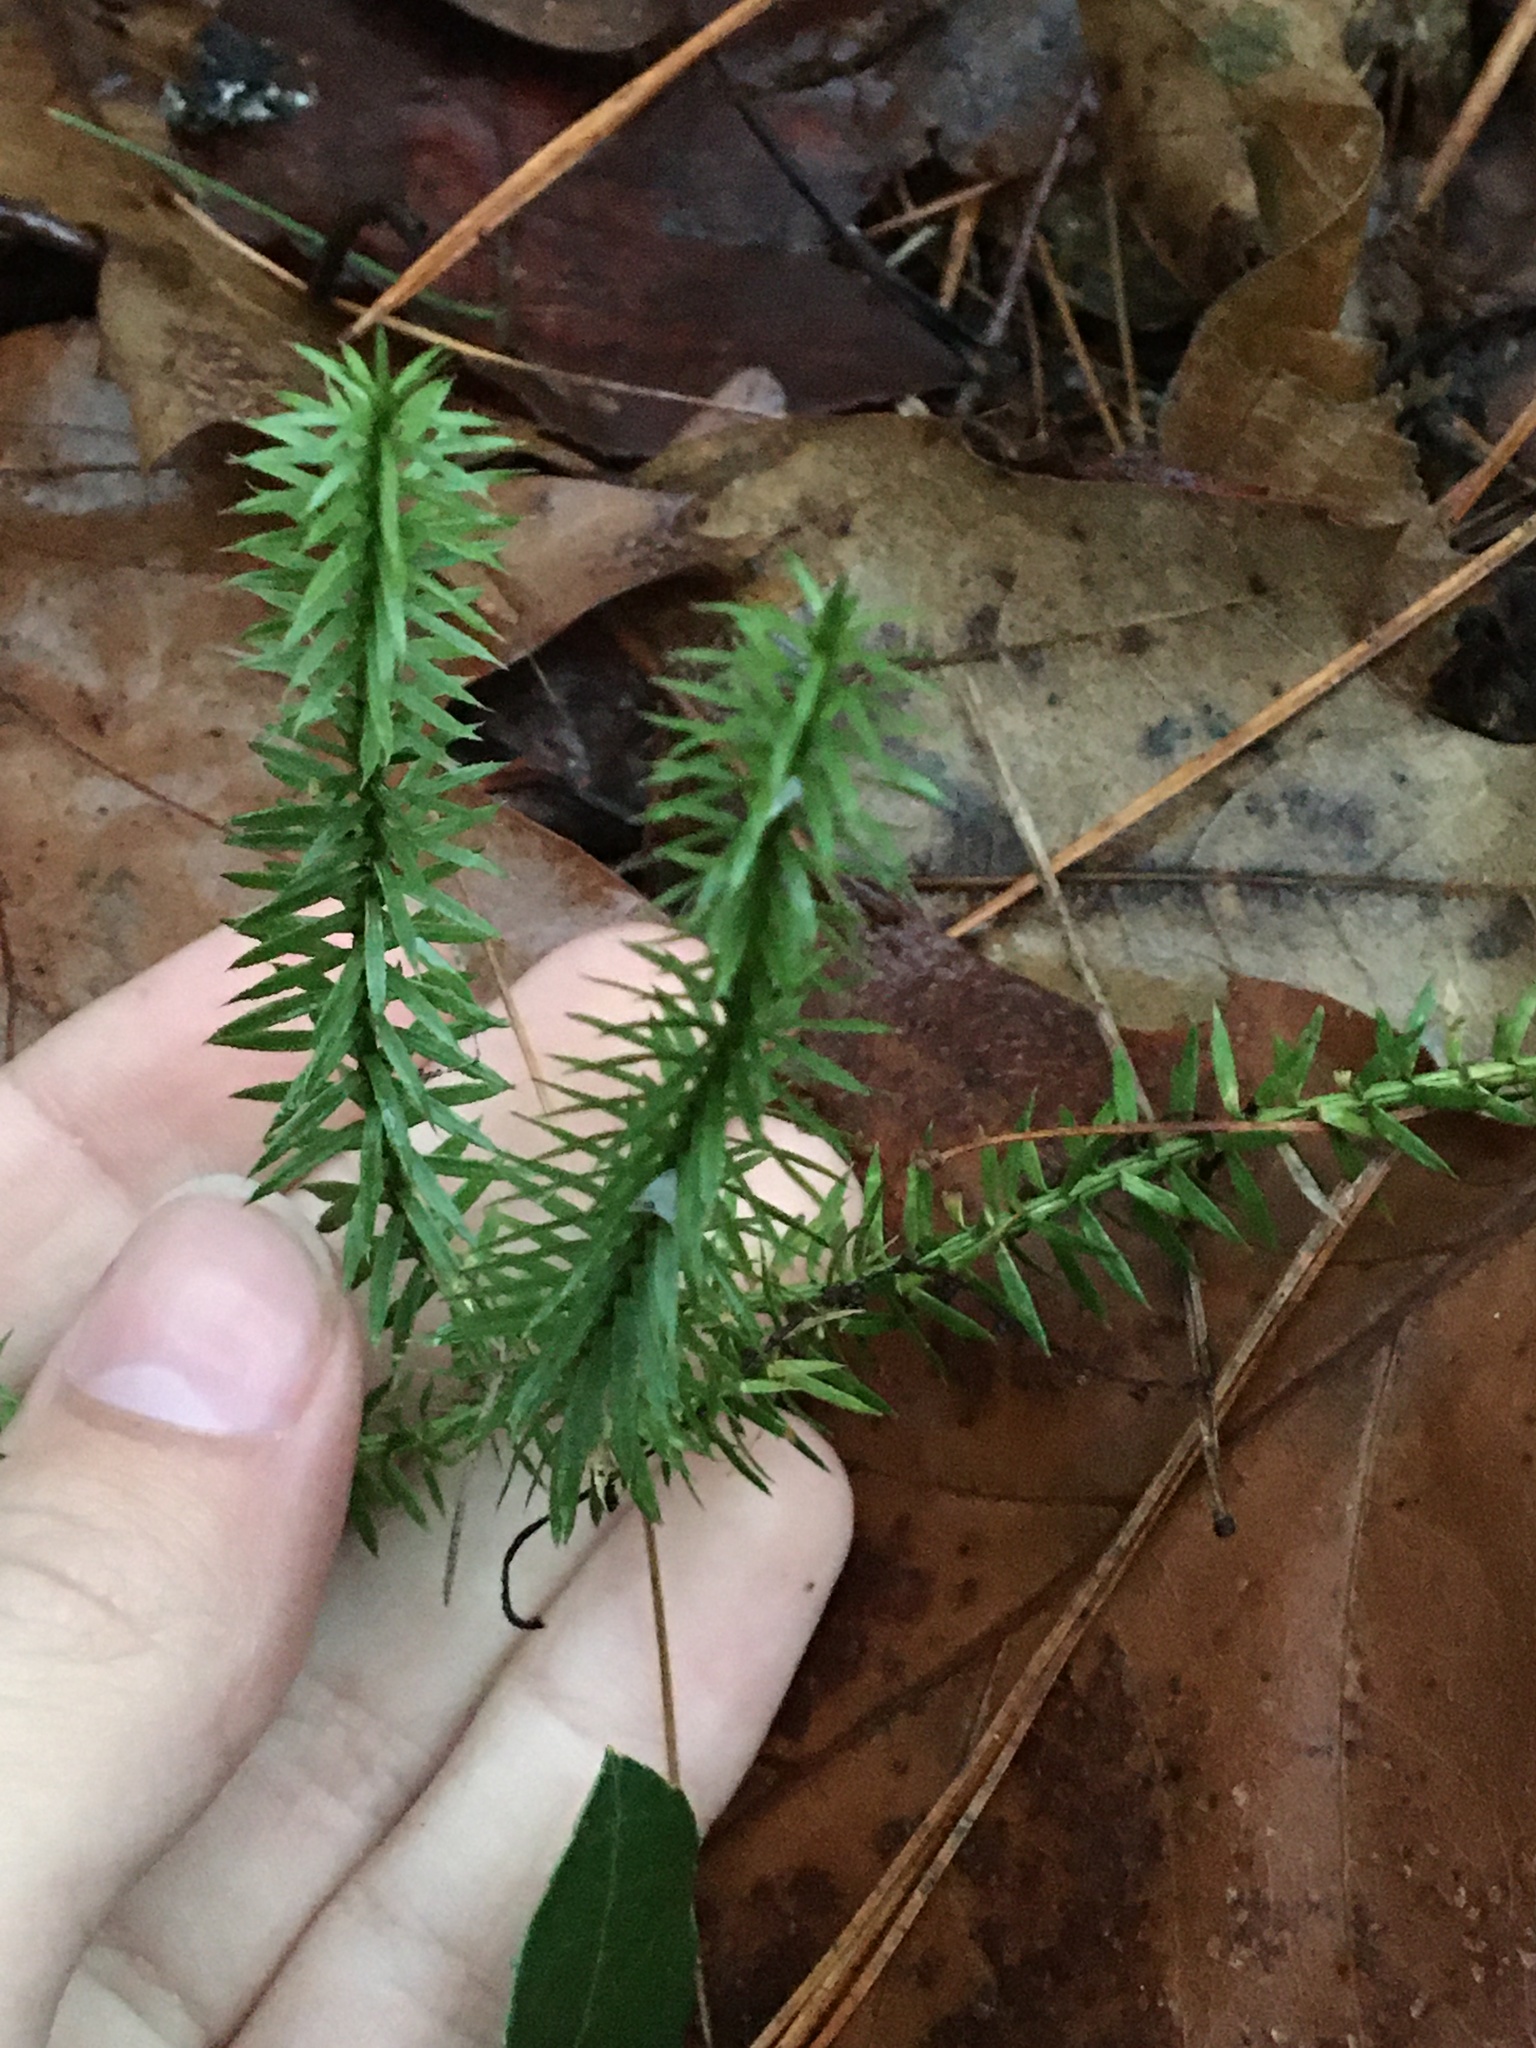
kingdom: Plantae
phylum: Tracheophyta
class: Lycopodiopsida
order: Lycopodiales
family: Lycopodiaceae
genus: Huperzia
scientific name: Huperzia lucidula
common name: Shining clubmoss
